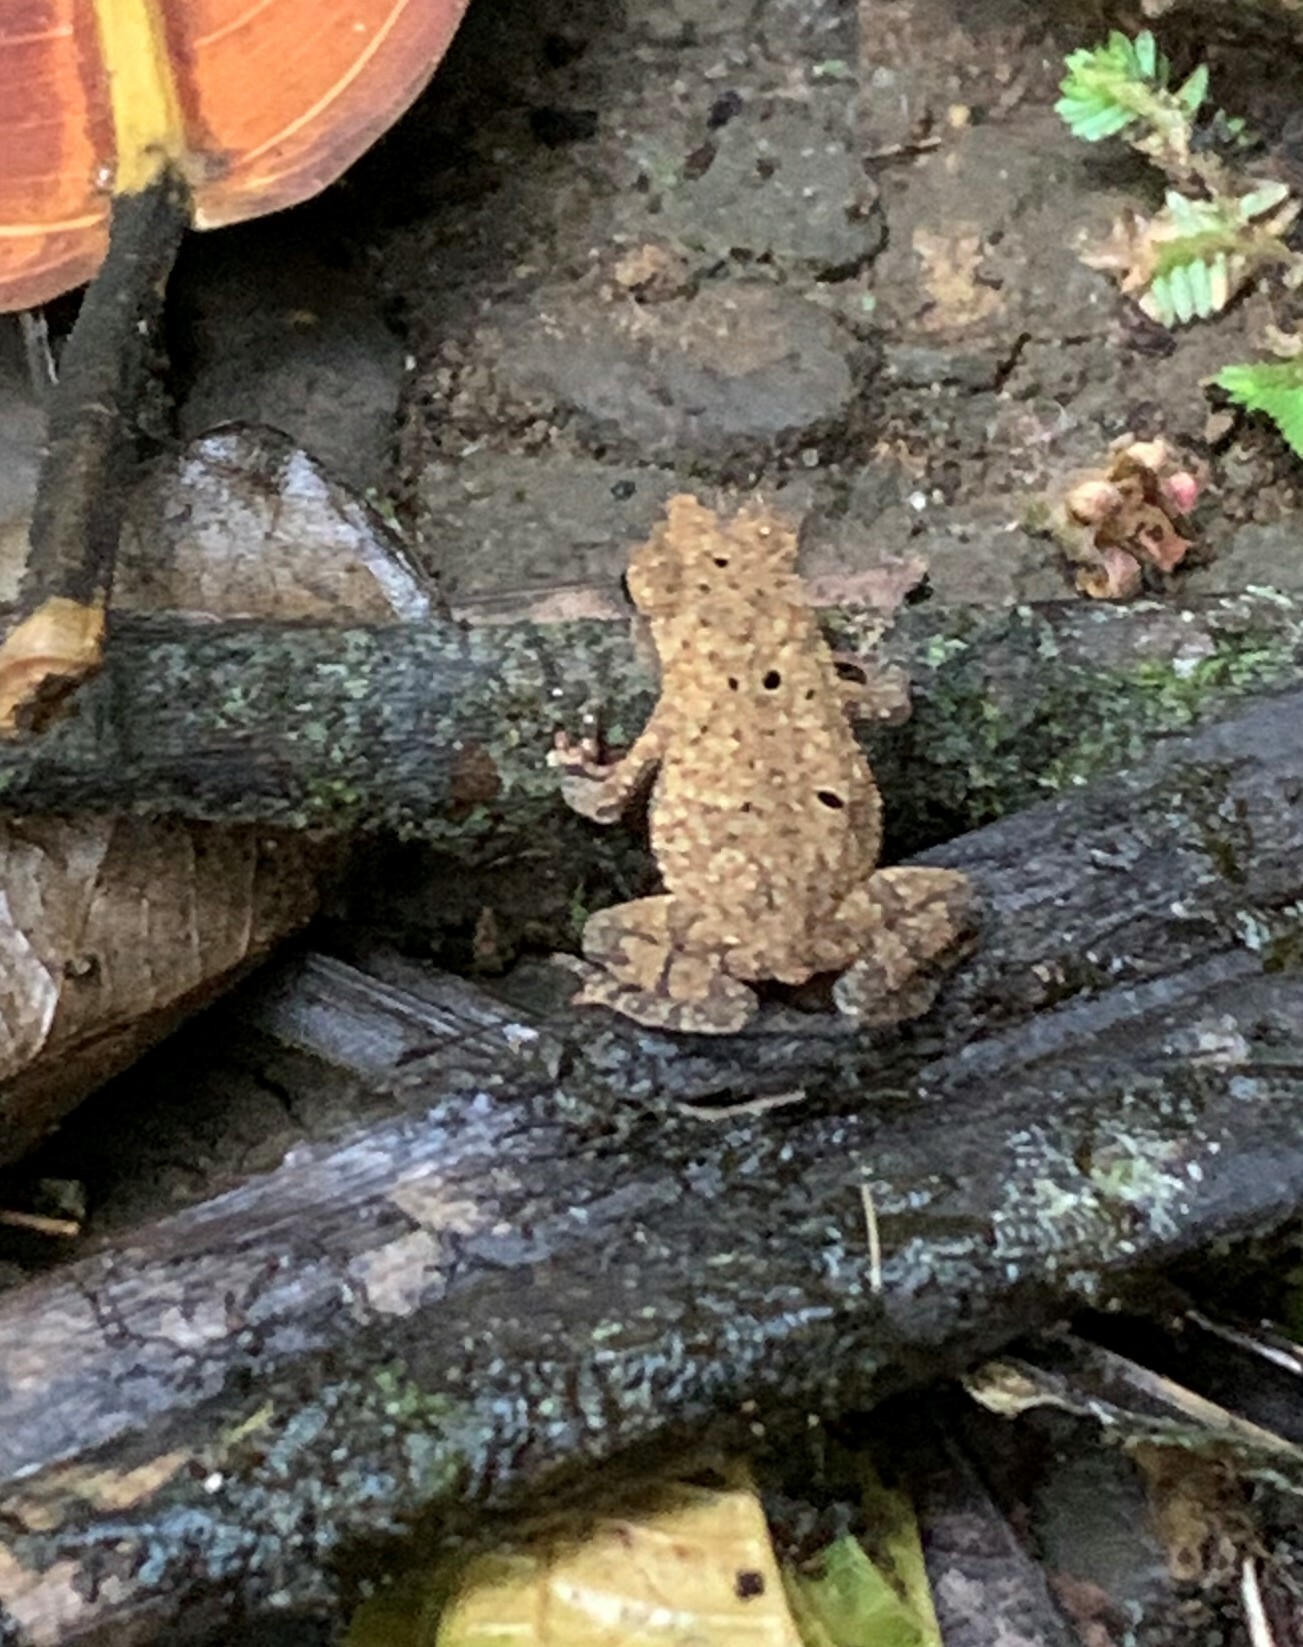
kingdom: Animalia
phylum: Chordata
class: Amphibia
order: Anura
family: Bufonidae
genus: Rhinella
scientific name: Rhinella alata
